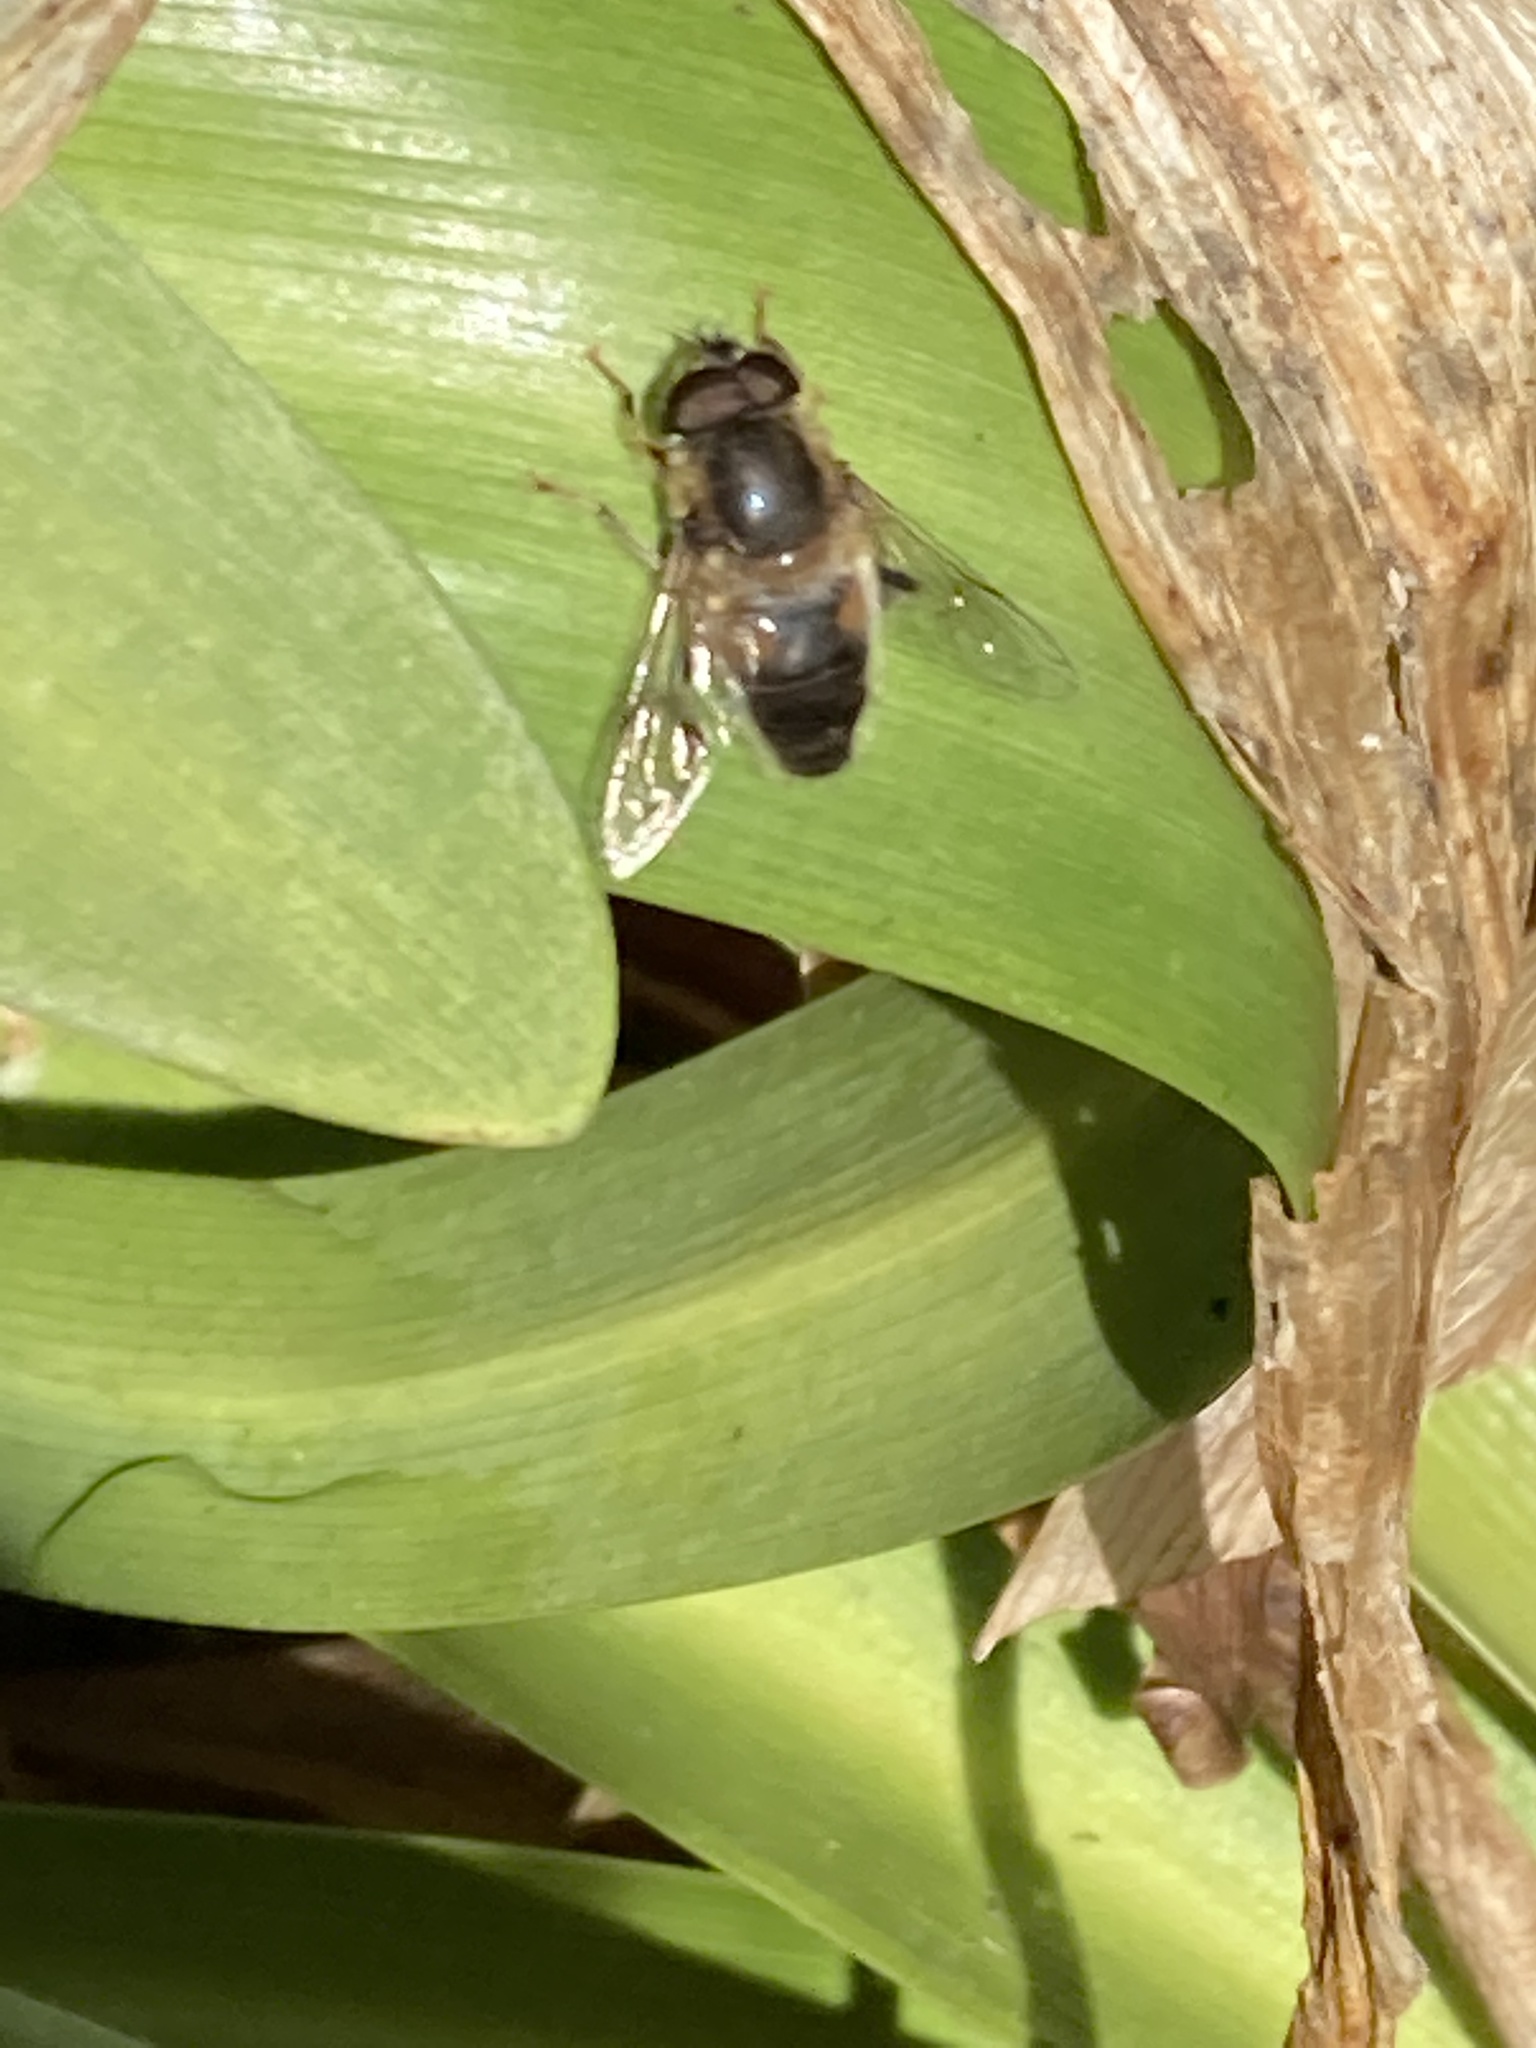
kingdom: Animalia
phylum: Arthropoda
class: Insecta
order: Diptera
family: Syrphidae
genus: Eristalis
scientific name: Eristalis pertinax
